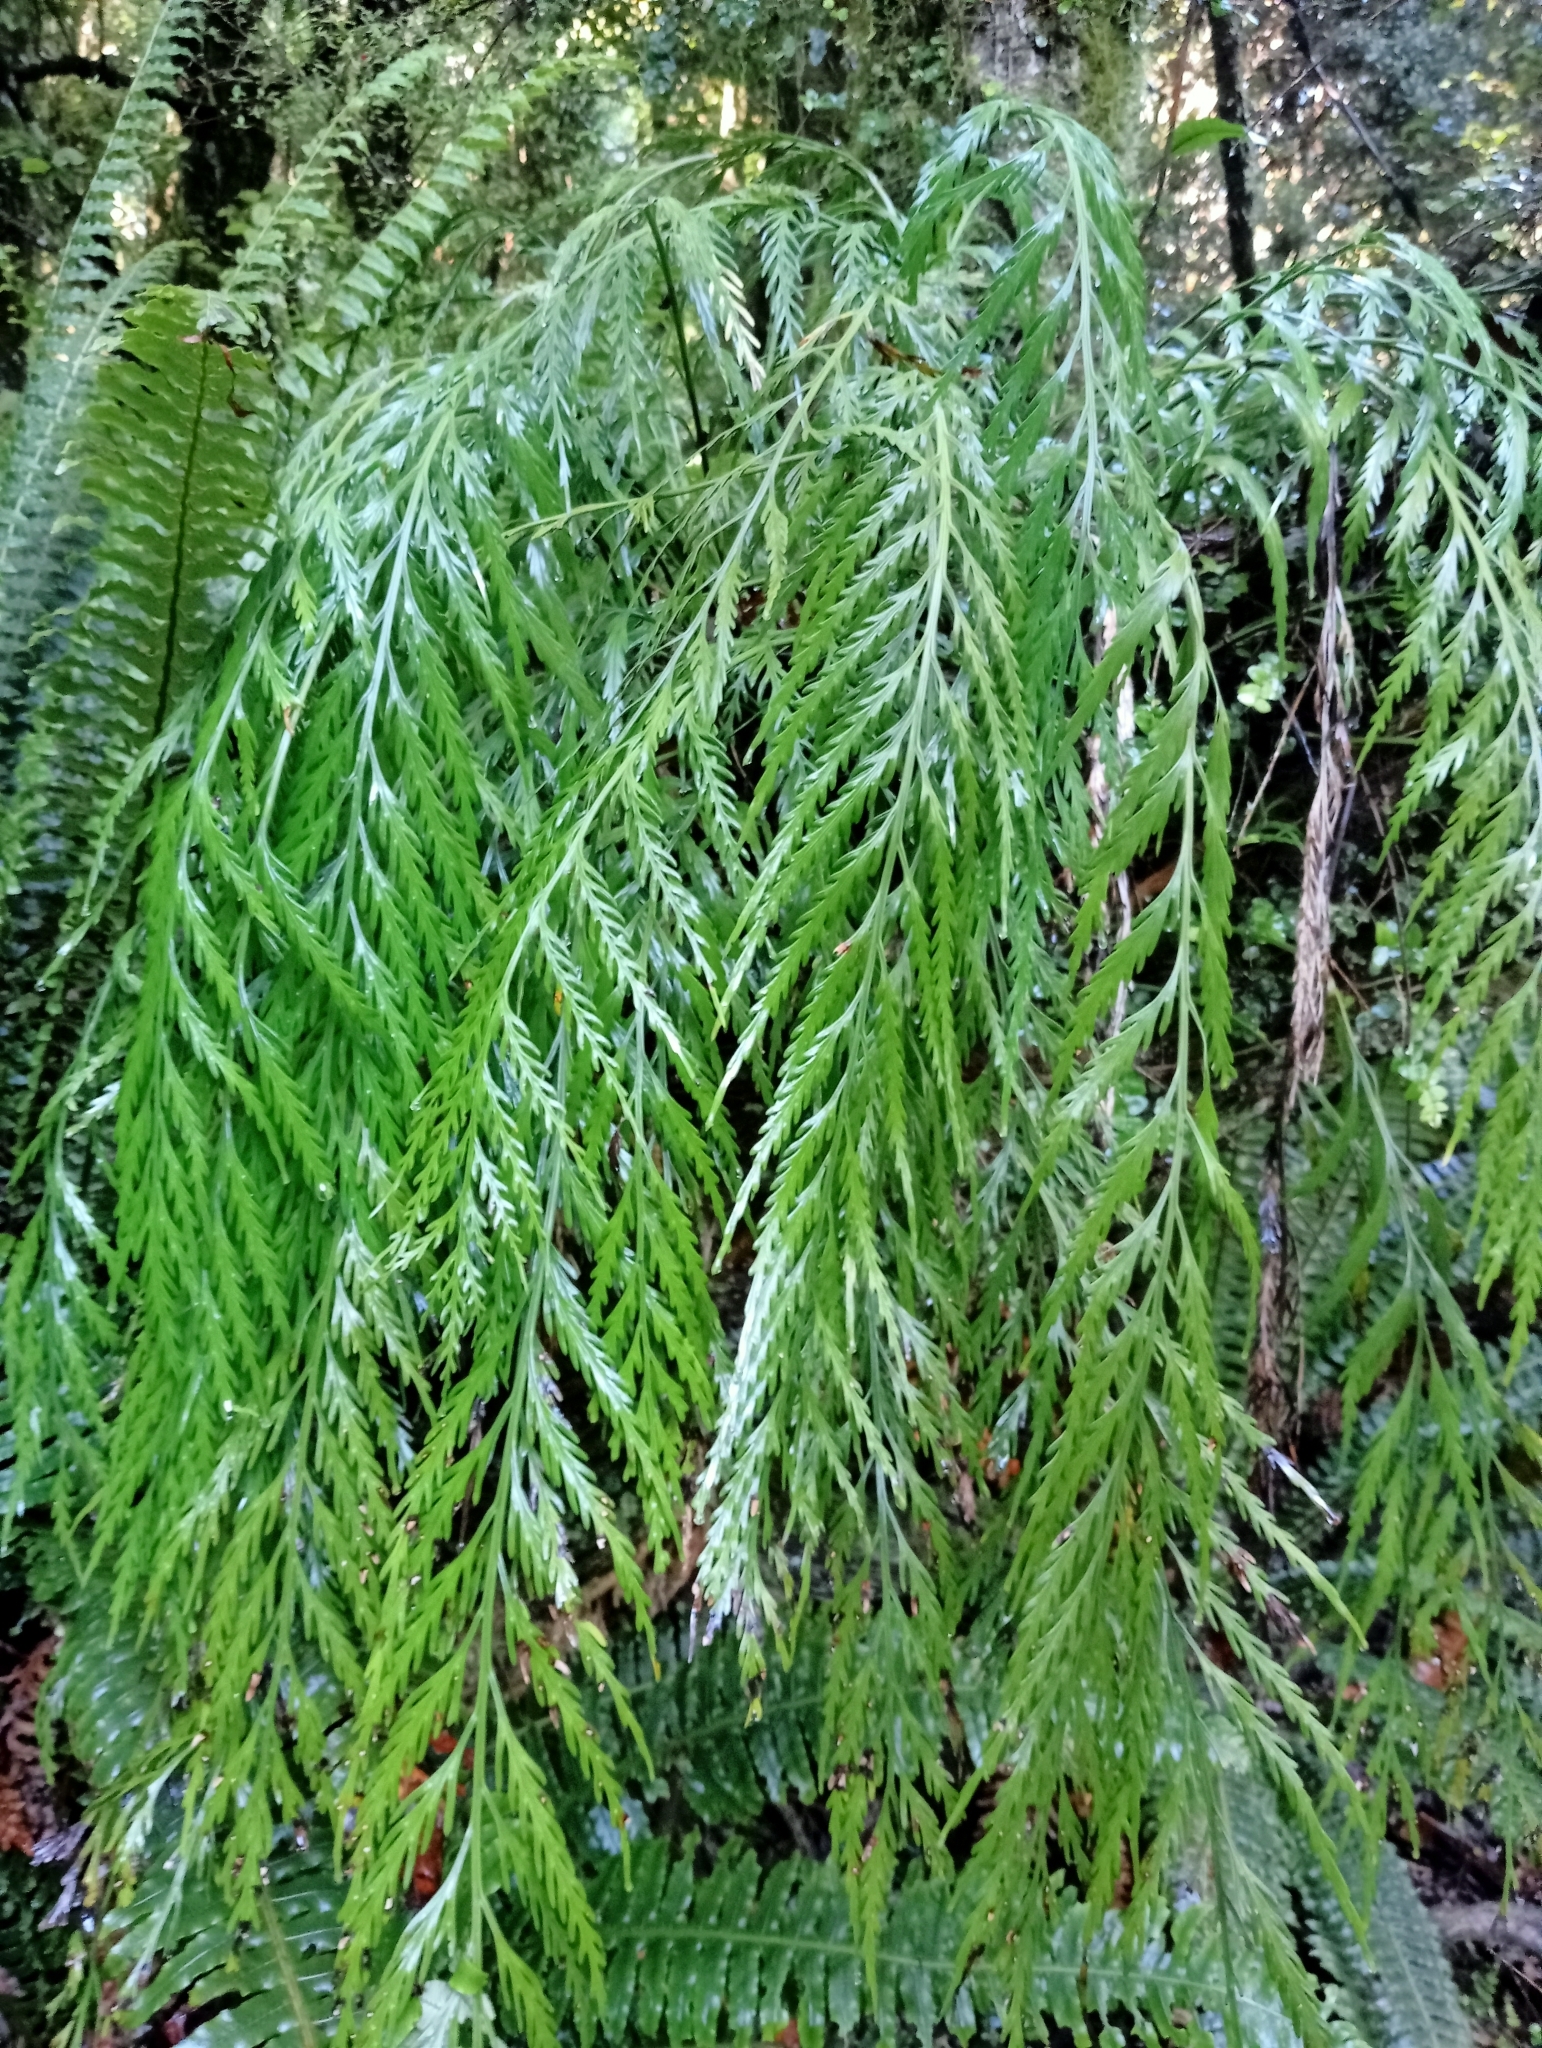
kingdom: Plantae
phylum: Tracheophyta
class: Polypodiopsida
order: Polypodiales
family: Aspleniaceae
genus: Asplenium
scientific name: Asplenium flaccidum
